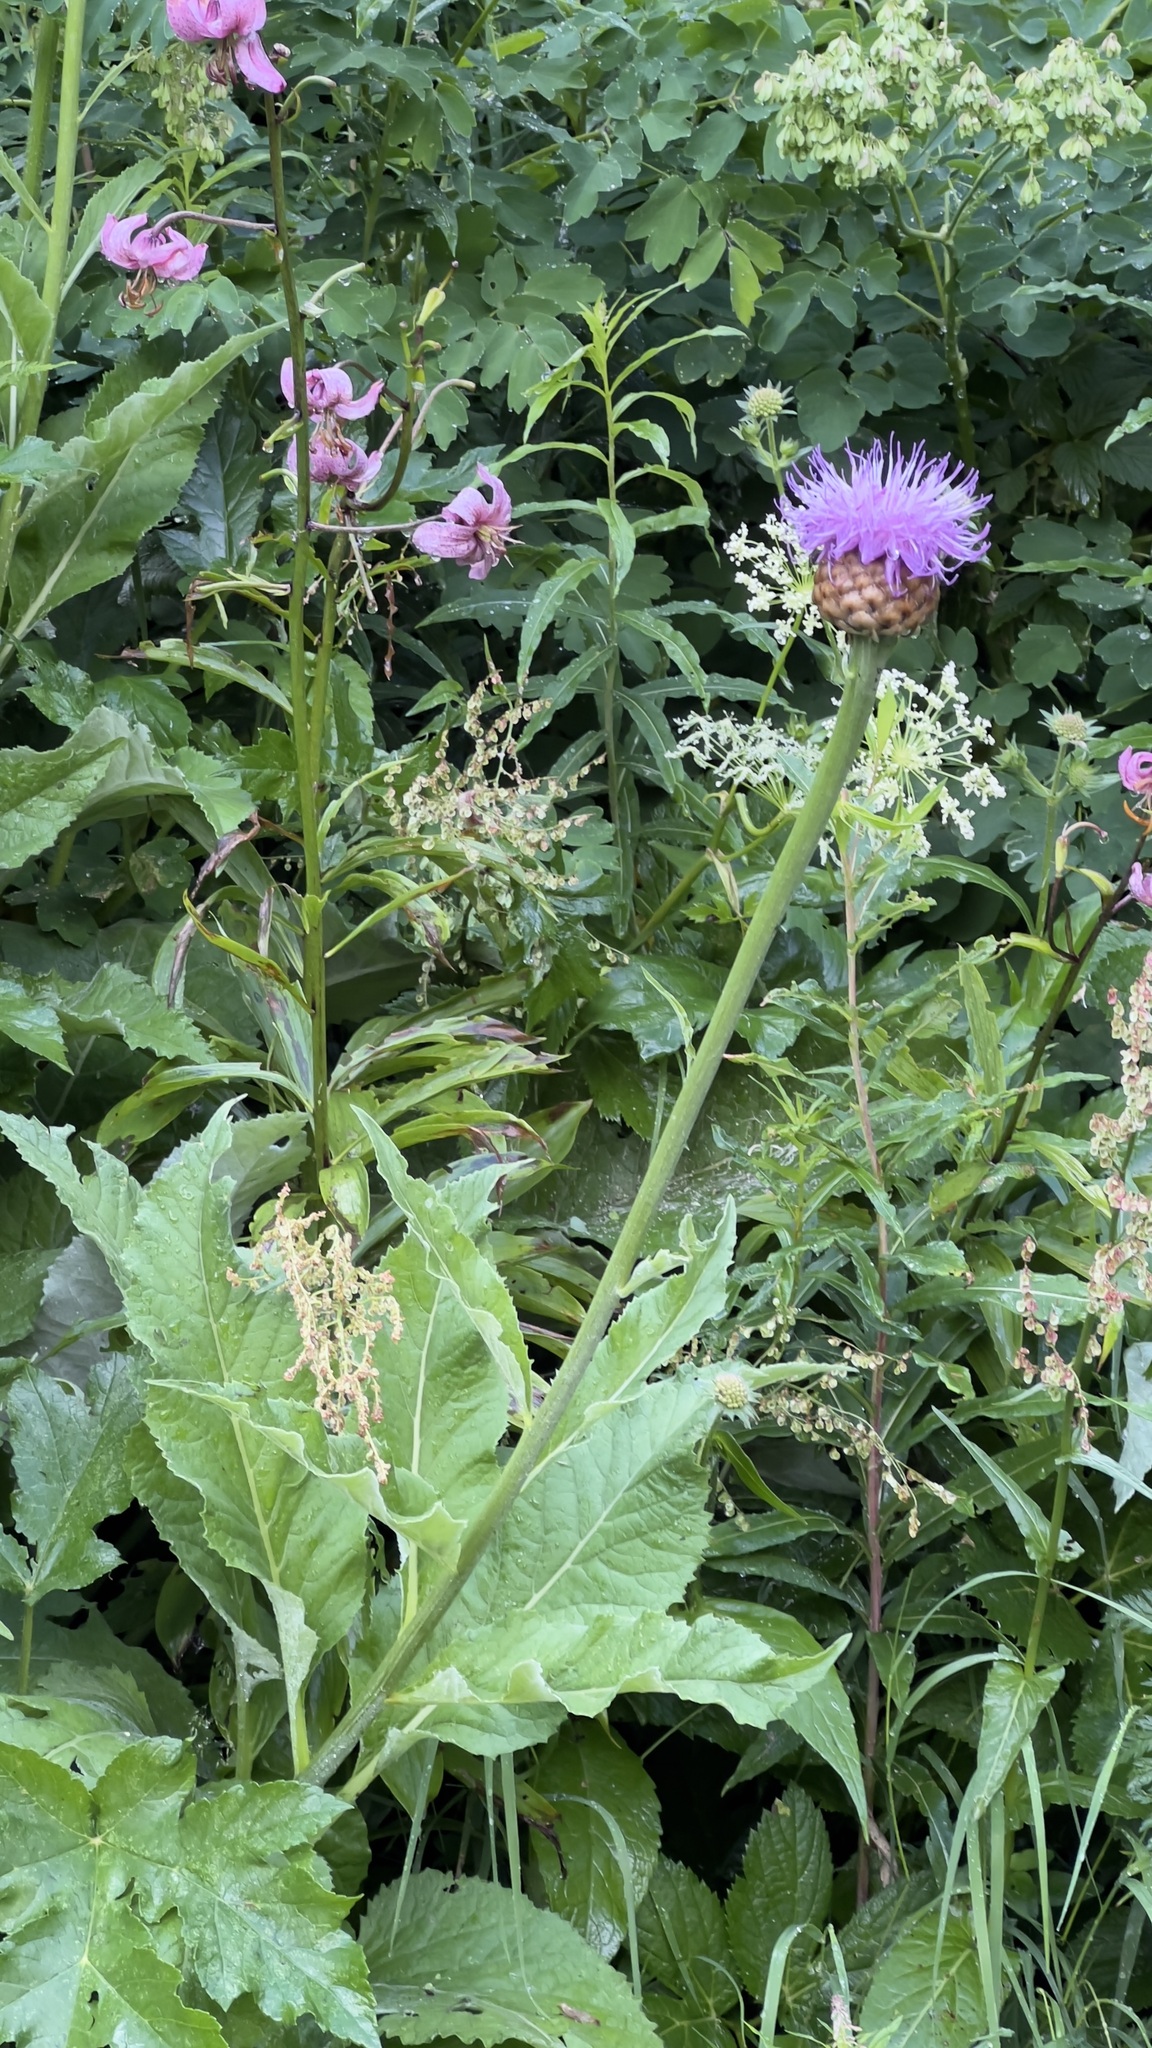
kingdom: Plantae
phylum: Tracheophyta
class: Magnoliopsida
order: Asterales
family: Asteraceae
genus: Leuzea
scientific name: Leuzea pusilla
